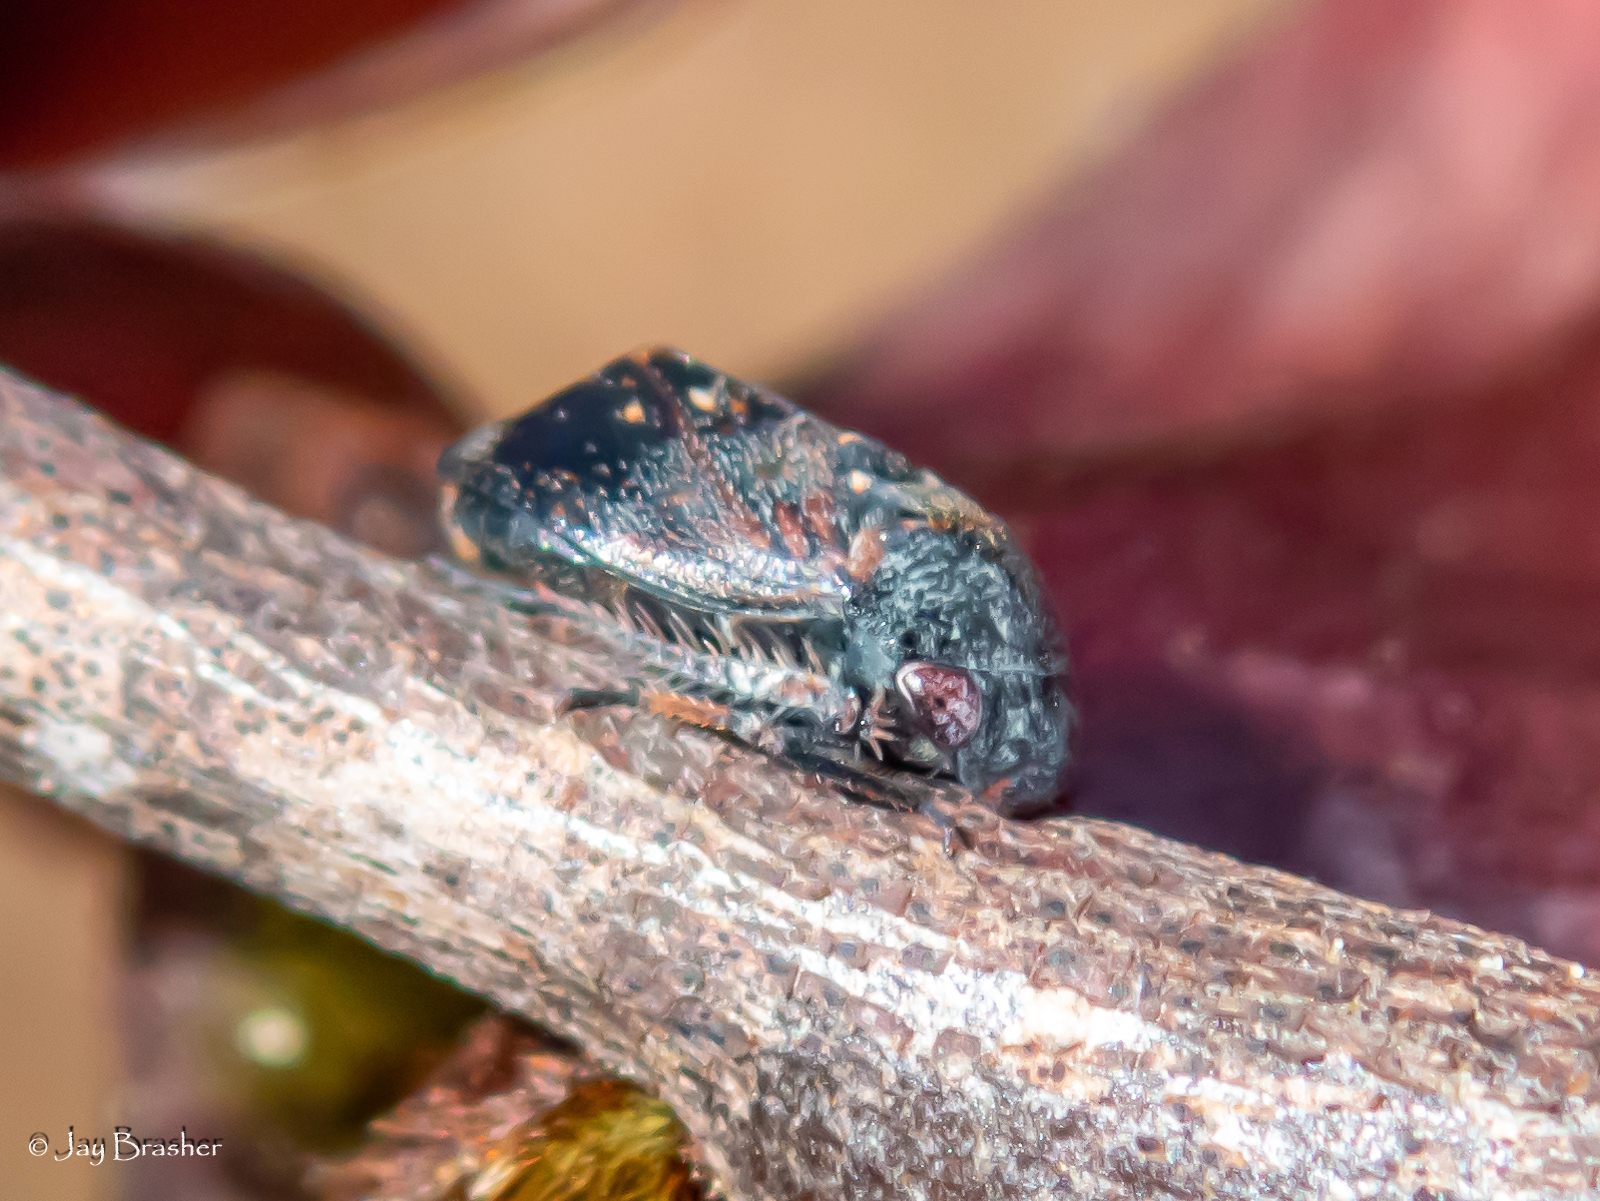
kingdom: Animalia
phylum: Arthropoda
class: Insecta
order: Hemiptera
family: Cicadellidae
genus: Penthimia
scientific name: Penthimia americana
